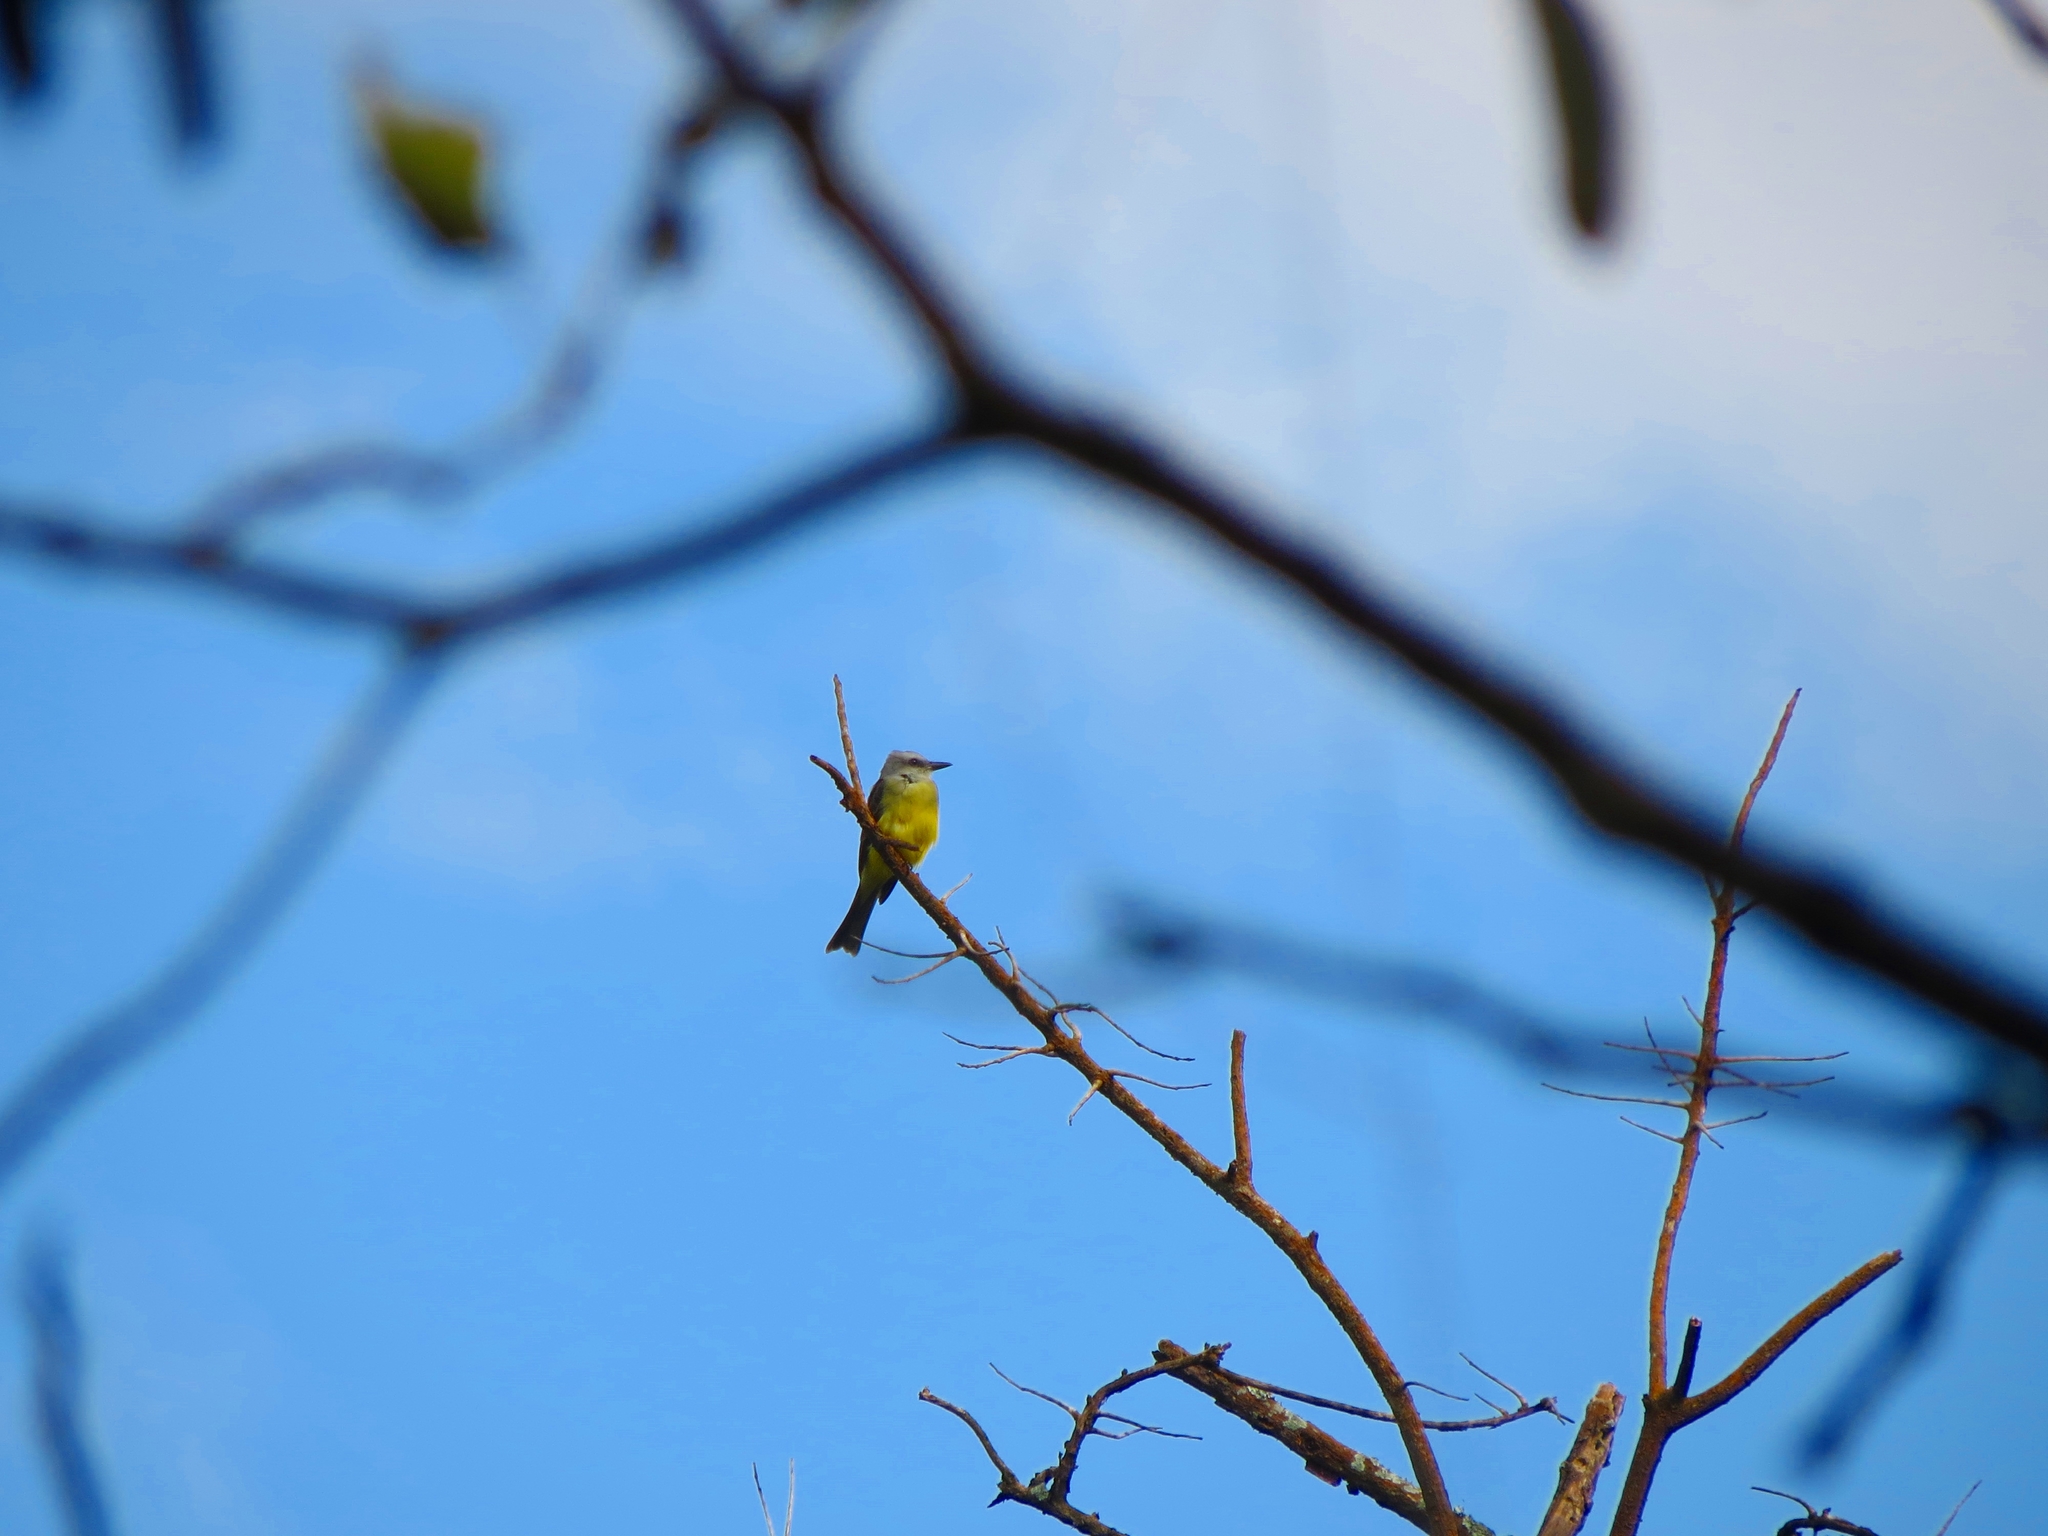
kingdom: Animalia
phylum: Chordata
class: Aves
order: Passeriformes
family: Tyrannidae
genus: Tyrannus
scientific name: Tyrannus melancholicus
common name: Tropical kingbird
